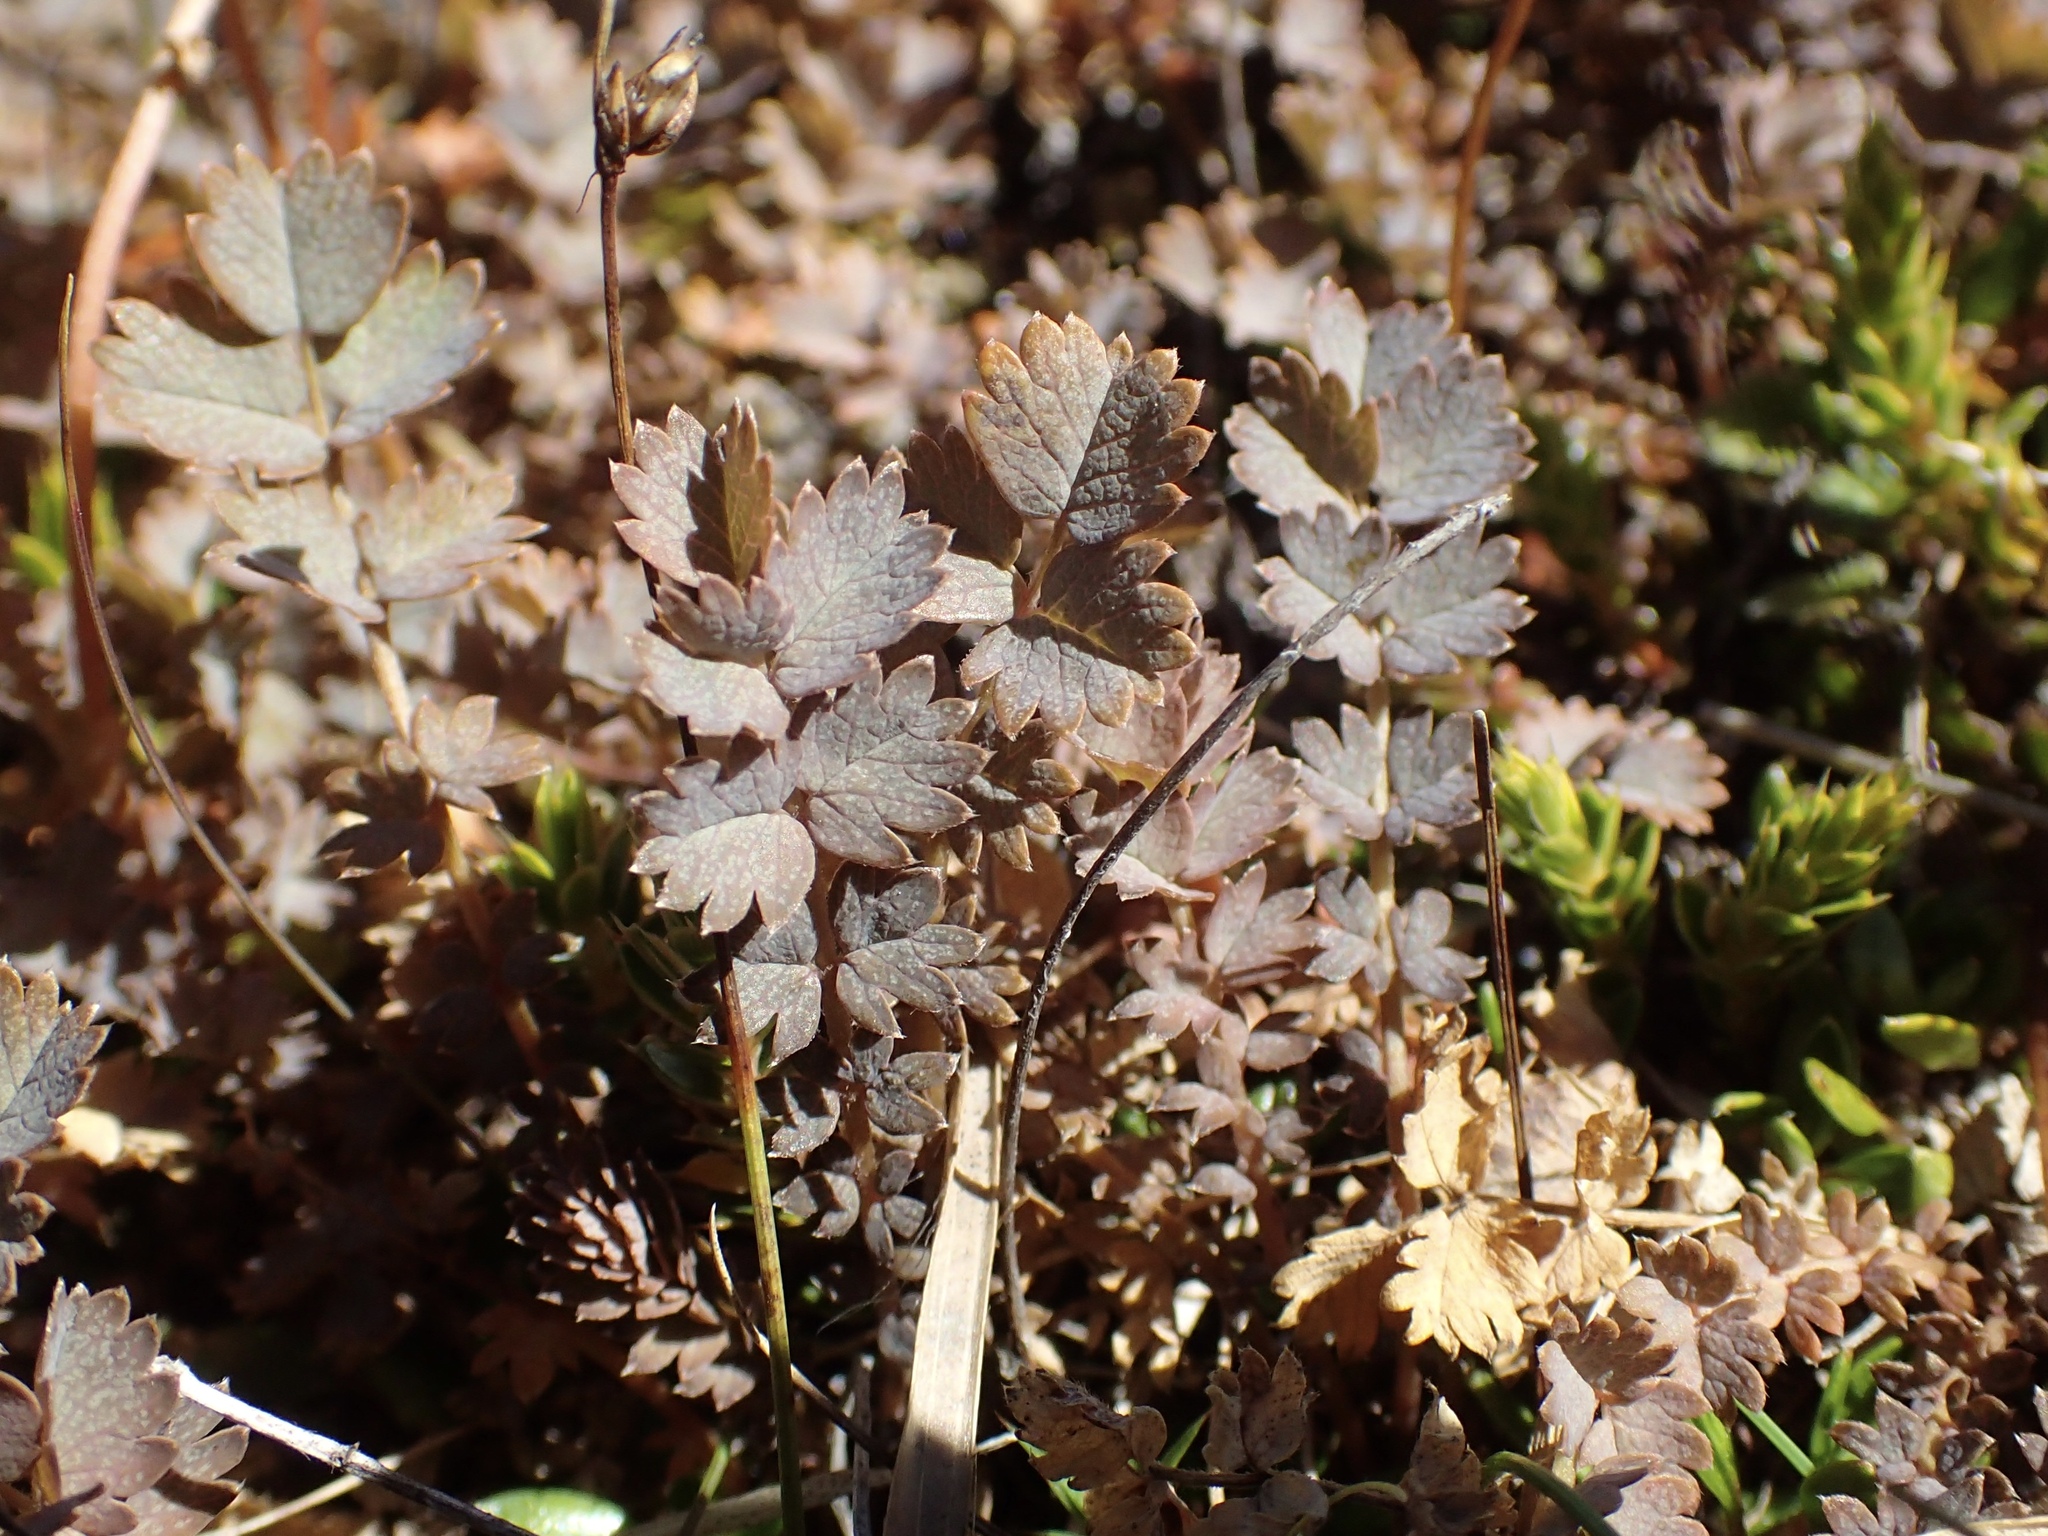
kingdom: Plantae
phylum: Tracheophyta
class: Magnoliopsida
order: Rosales
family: Rosaceae
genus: Acaena
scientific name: Acaena inermis
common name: Spineless acaena
